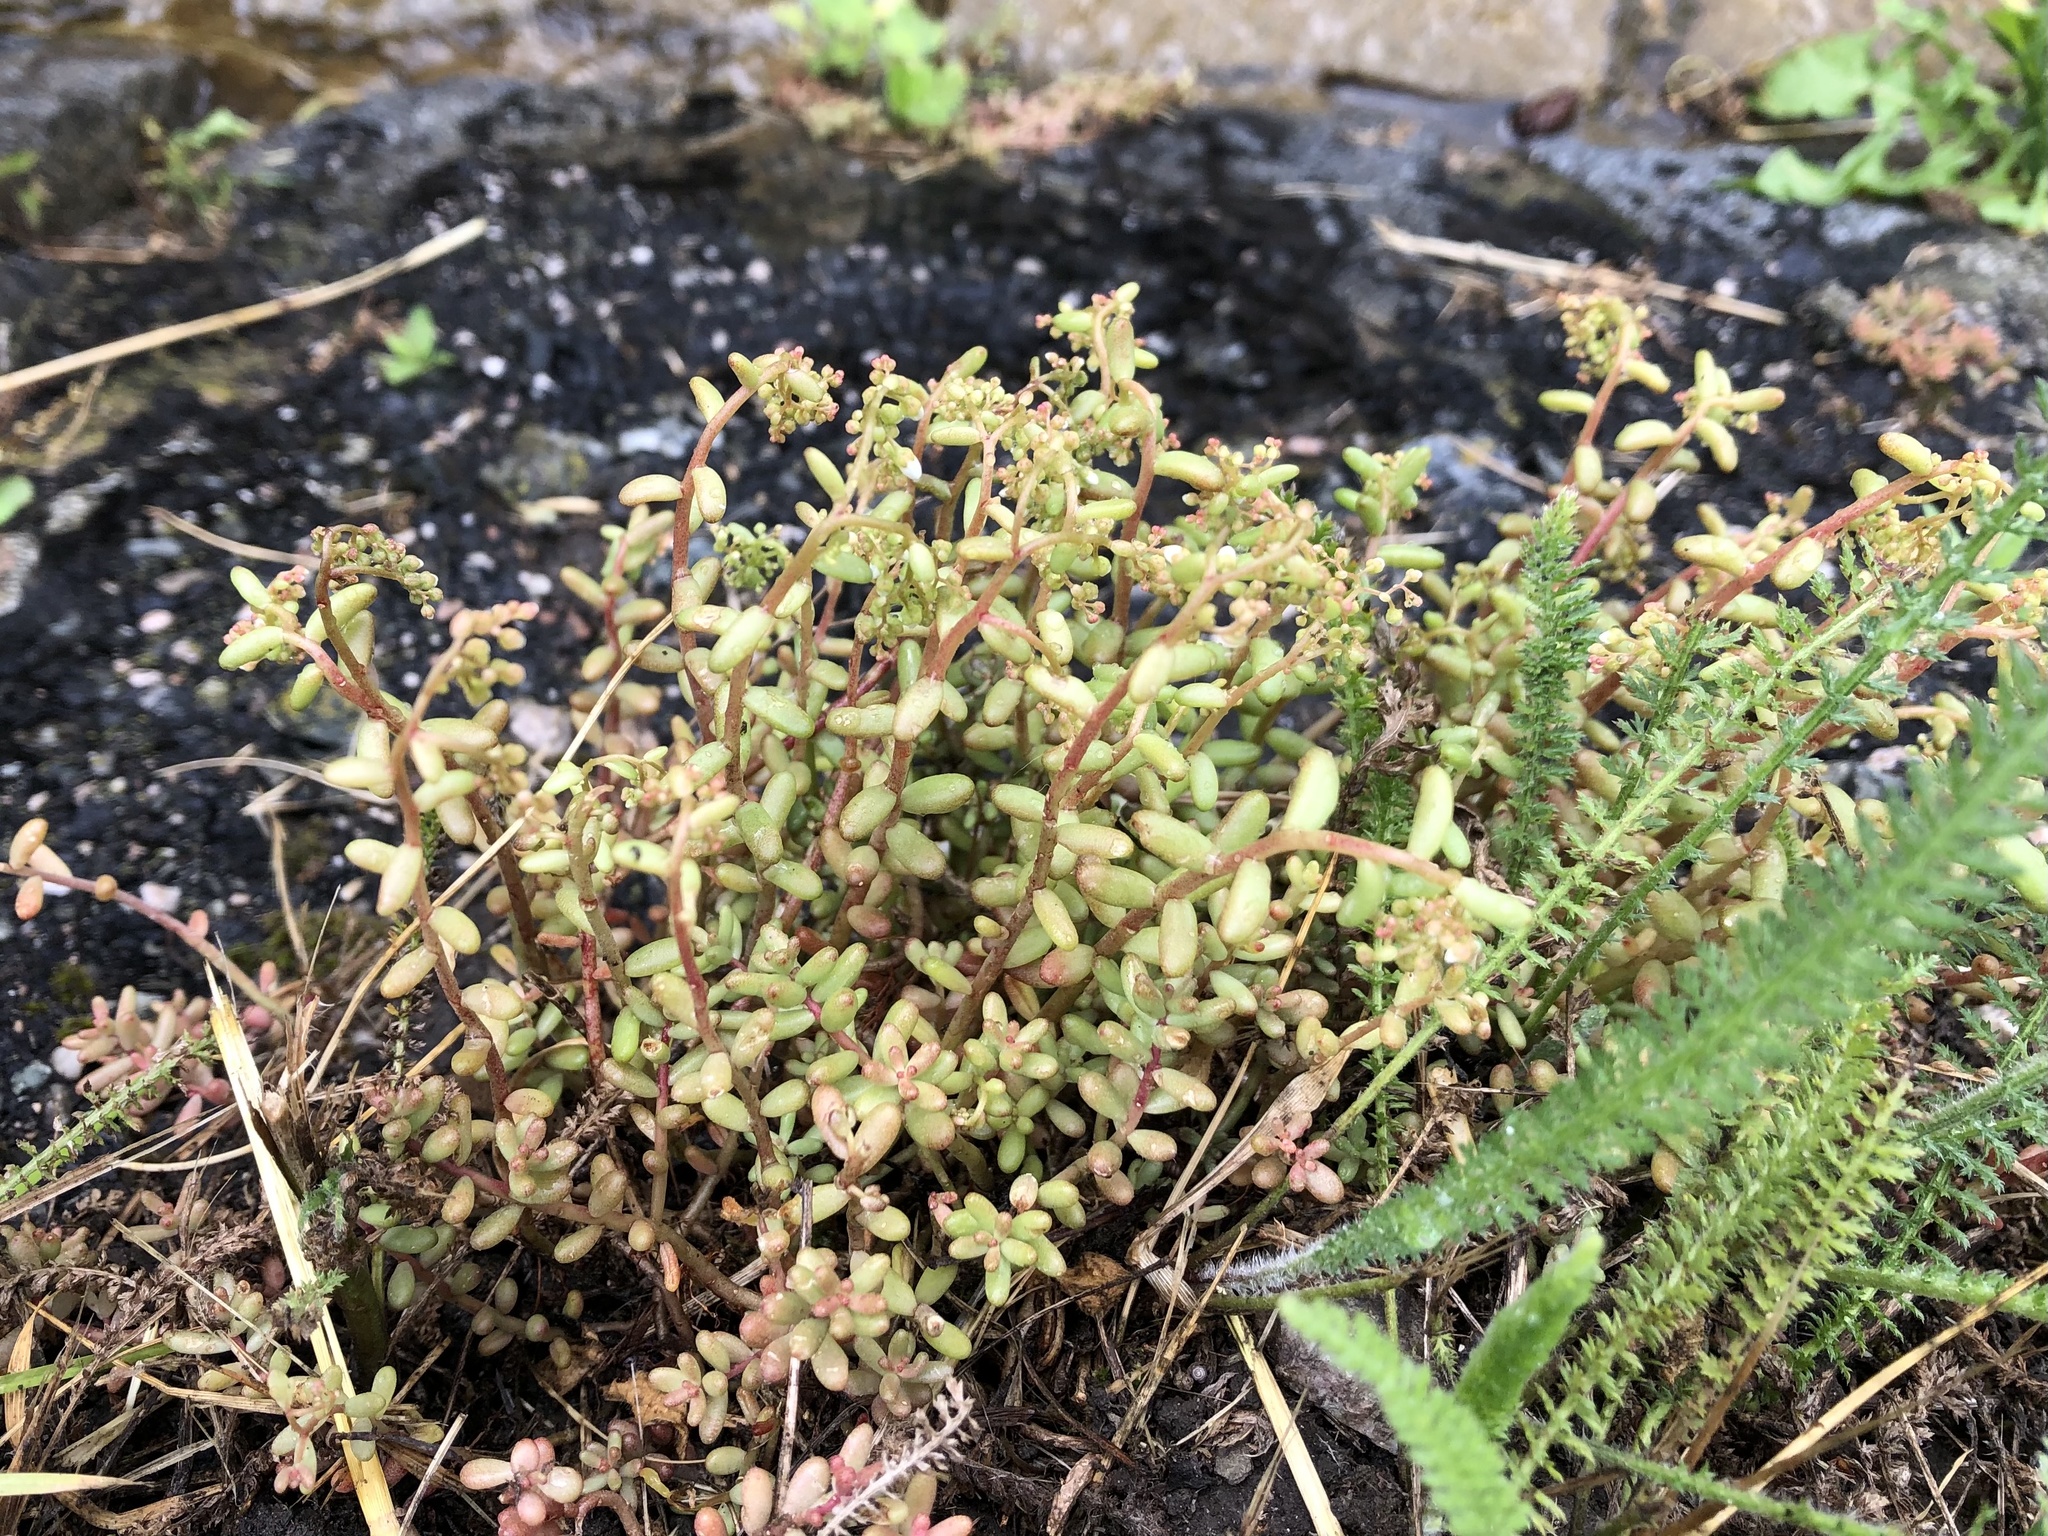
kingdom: Plantae
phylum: Tracheophyta
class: Magnoliopsida
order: Saxifragales
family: Crassulaceae
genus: Sedum
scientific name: Sedum album
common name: White stonecrop
